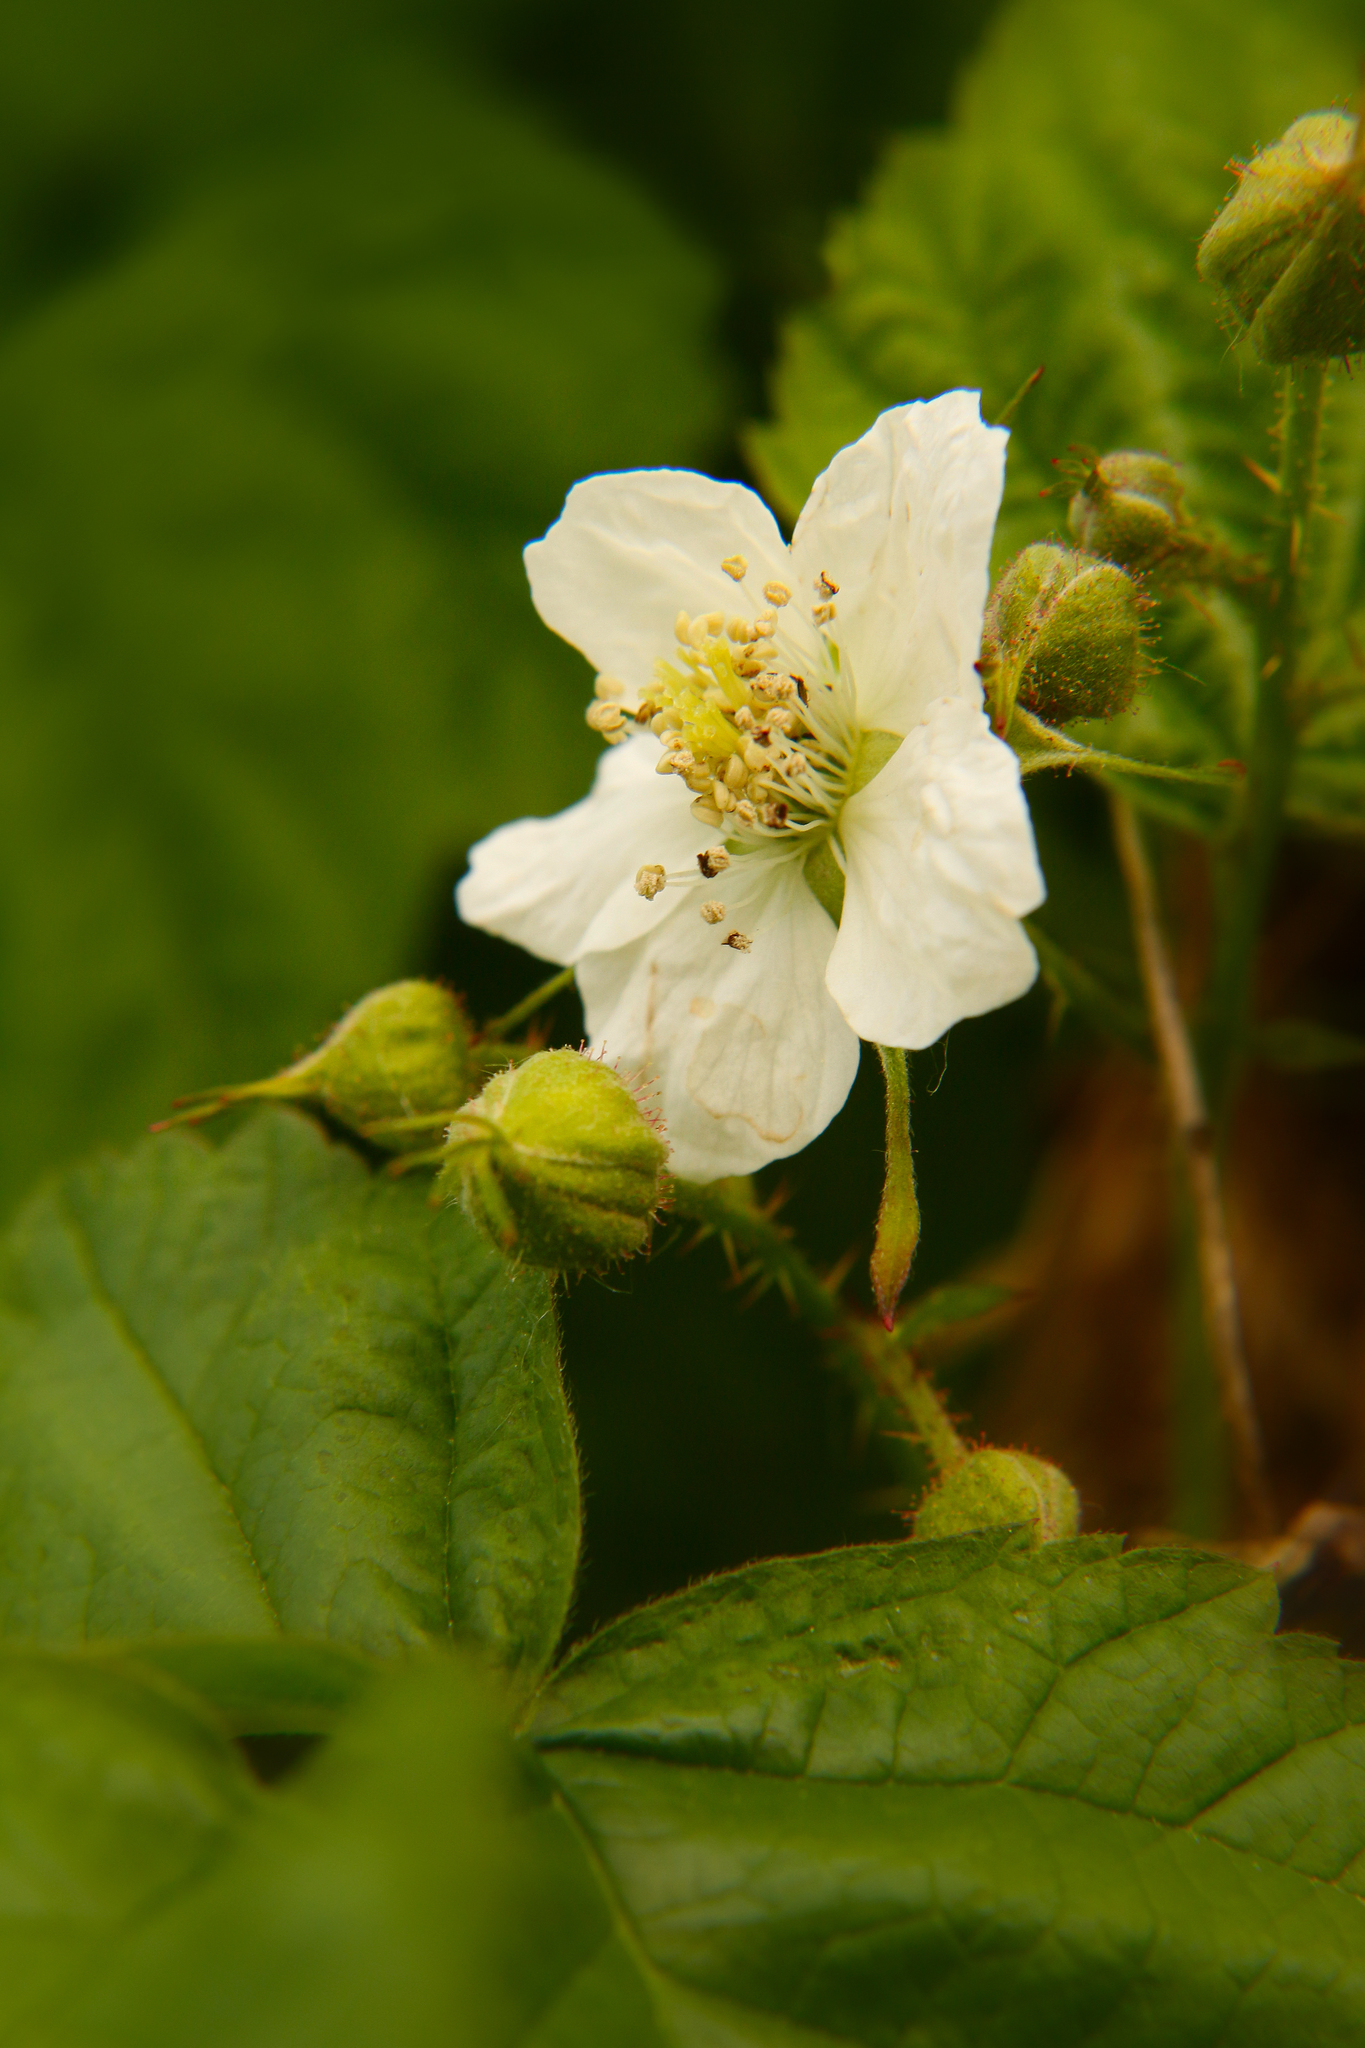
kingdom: Plantae
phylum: Tracheophyta
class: Magnoliopsida
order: Rosales
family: Rosaceae
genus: Rubus
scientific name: Rubus caesius
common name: Dewberry
